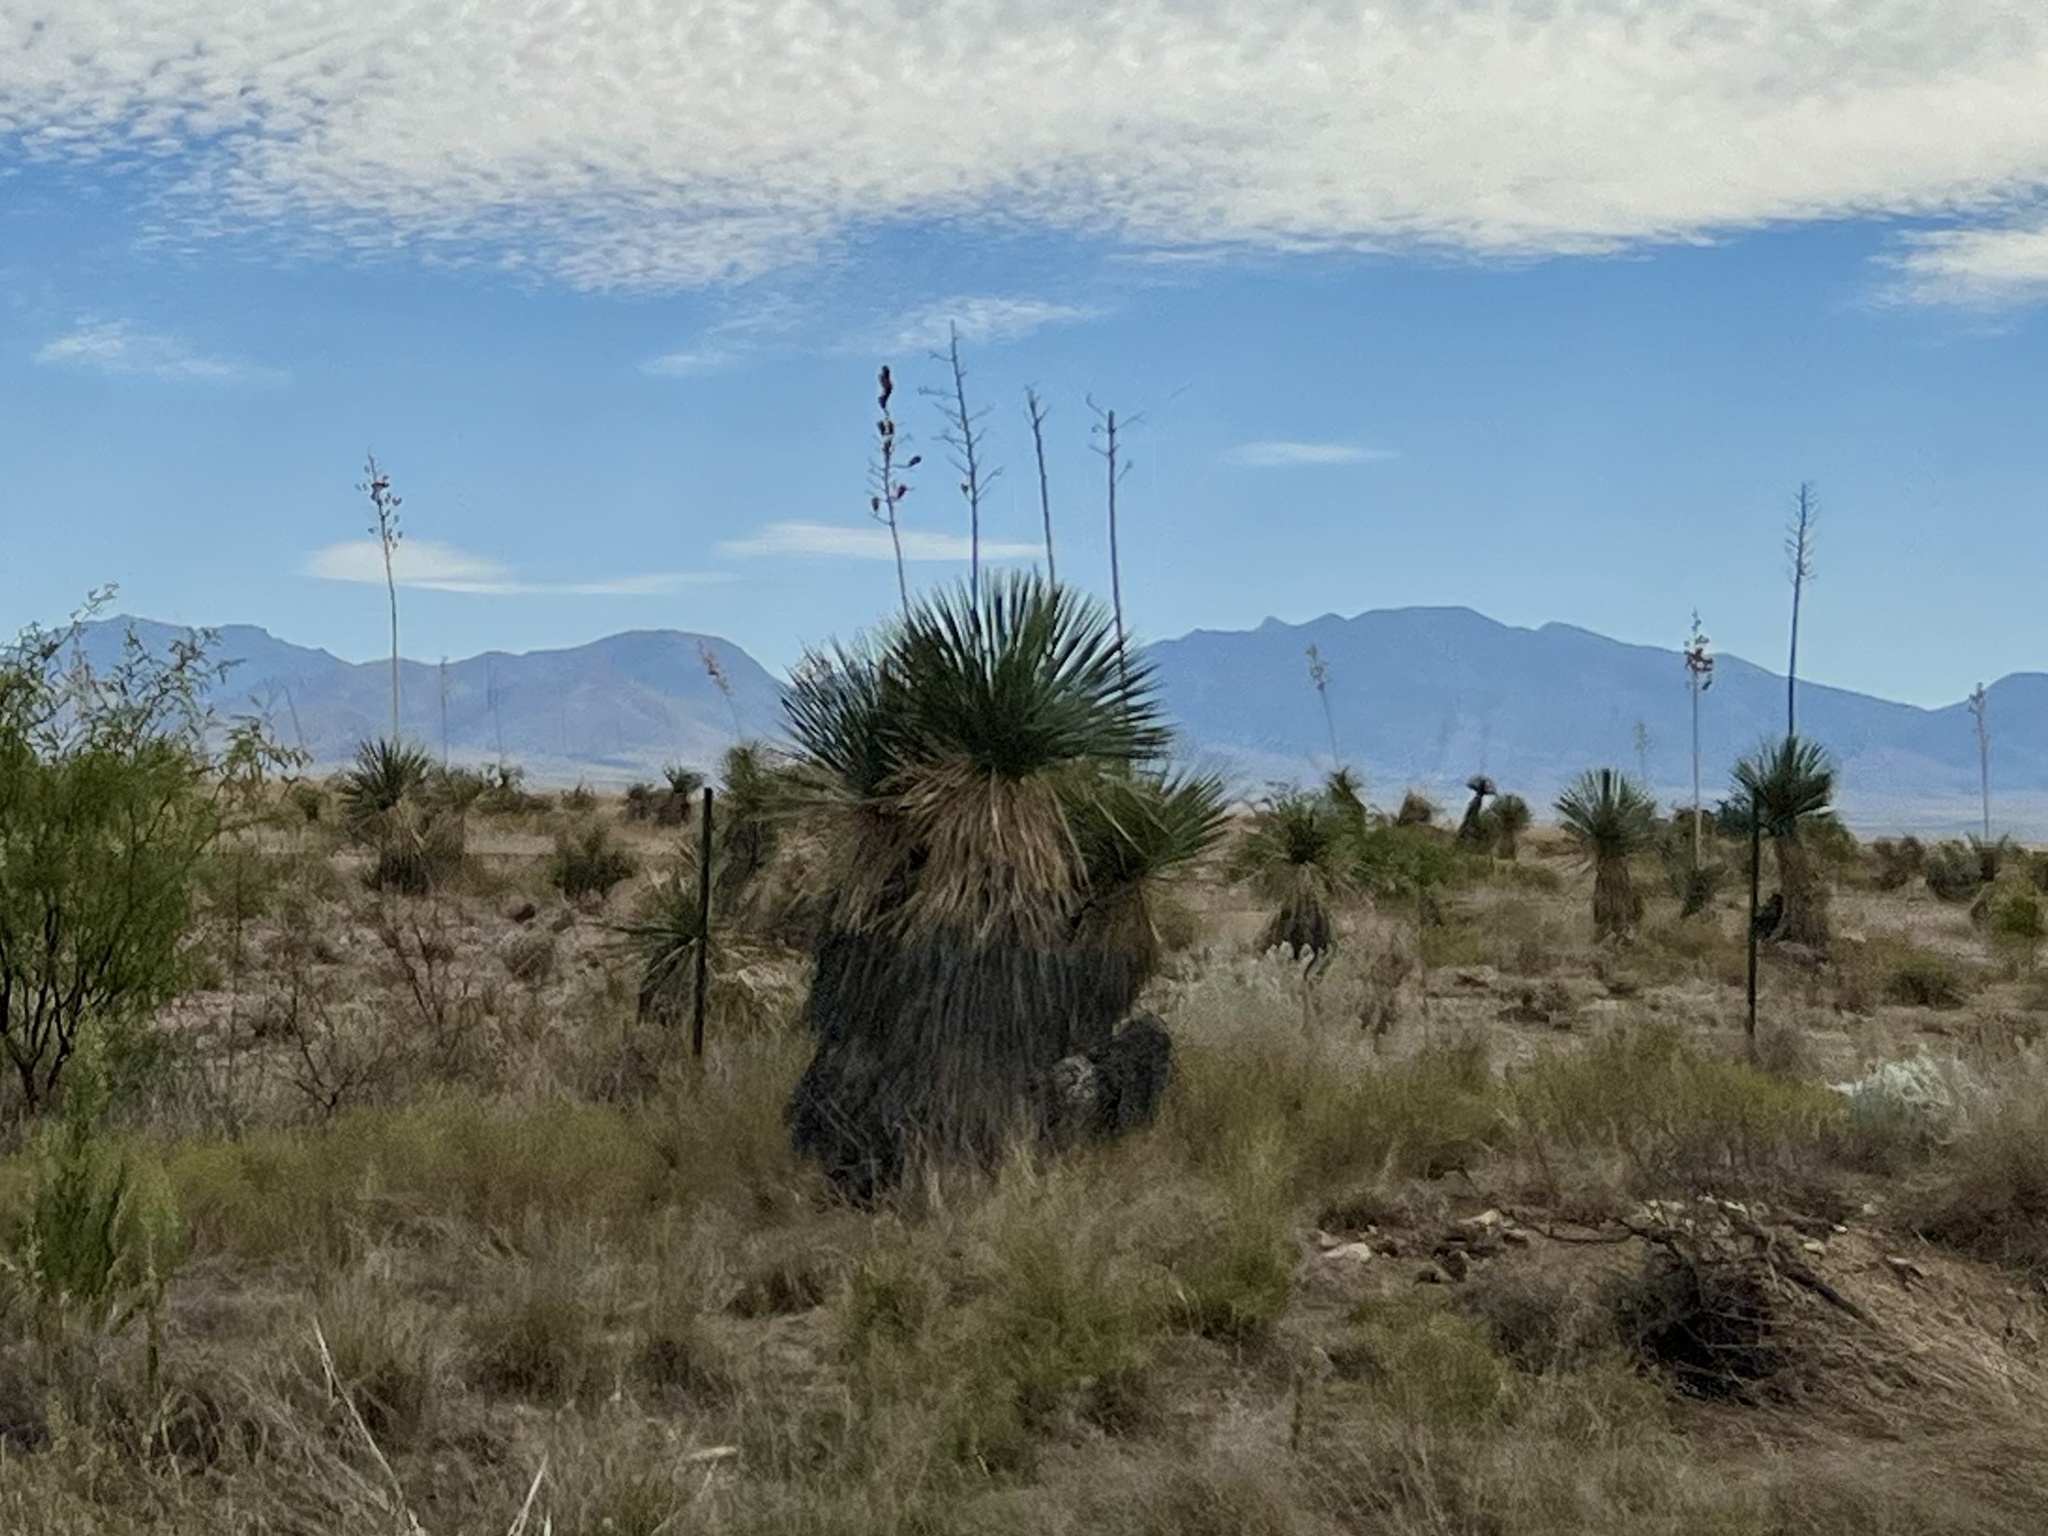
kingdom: Plantae
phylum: Tracheophyta
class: Liliopsida
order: Asparagales
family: Asparagaceae
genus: Yucca
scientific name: Yucca elata
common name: Palmella
